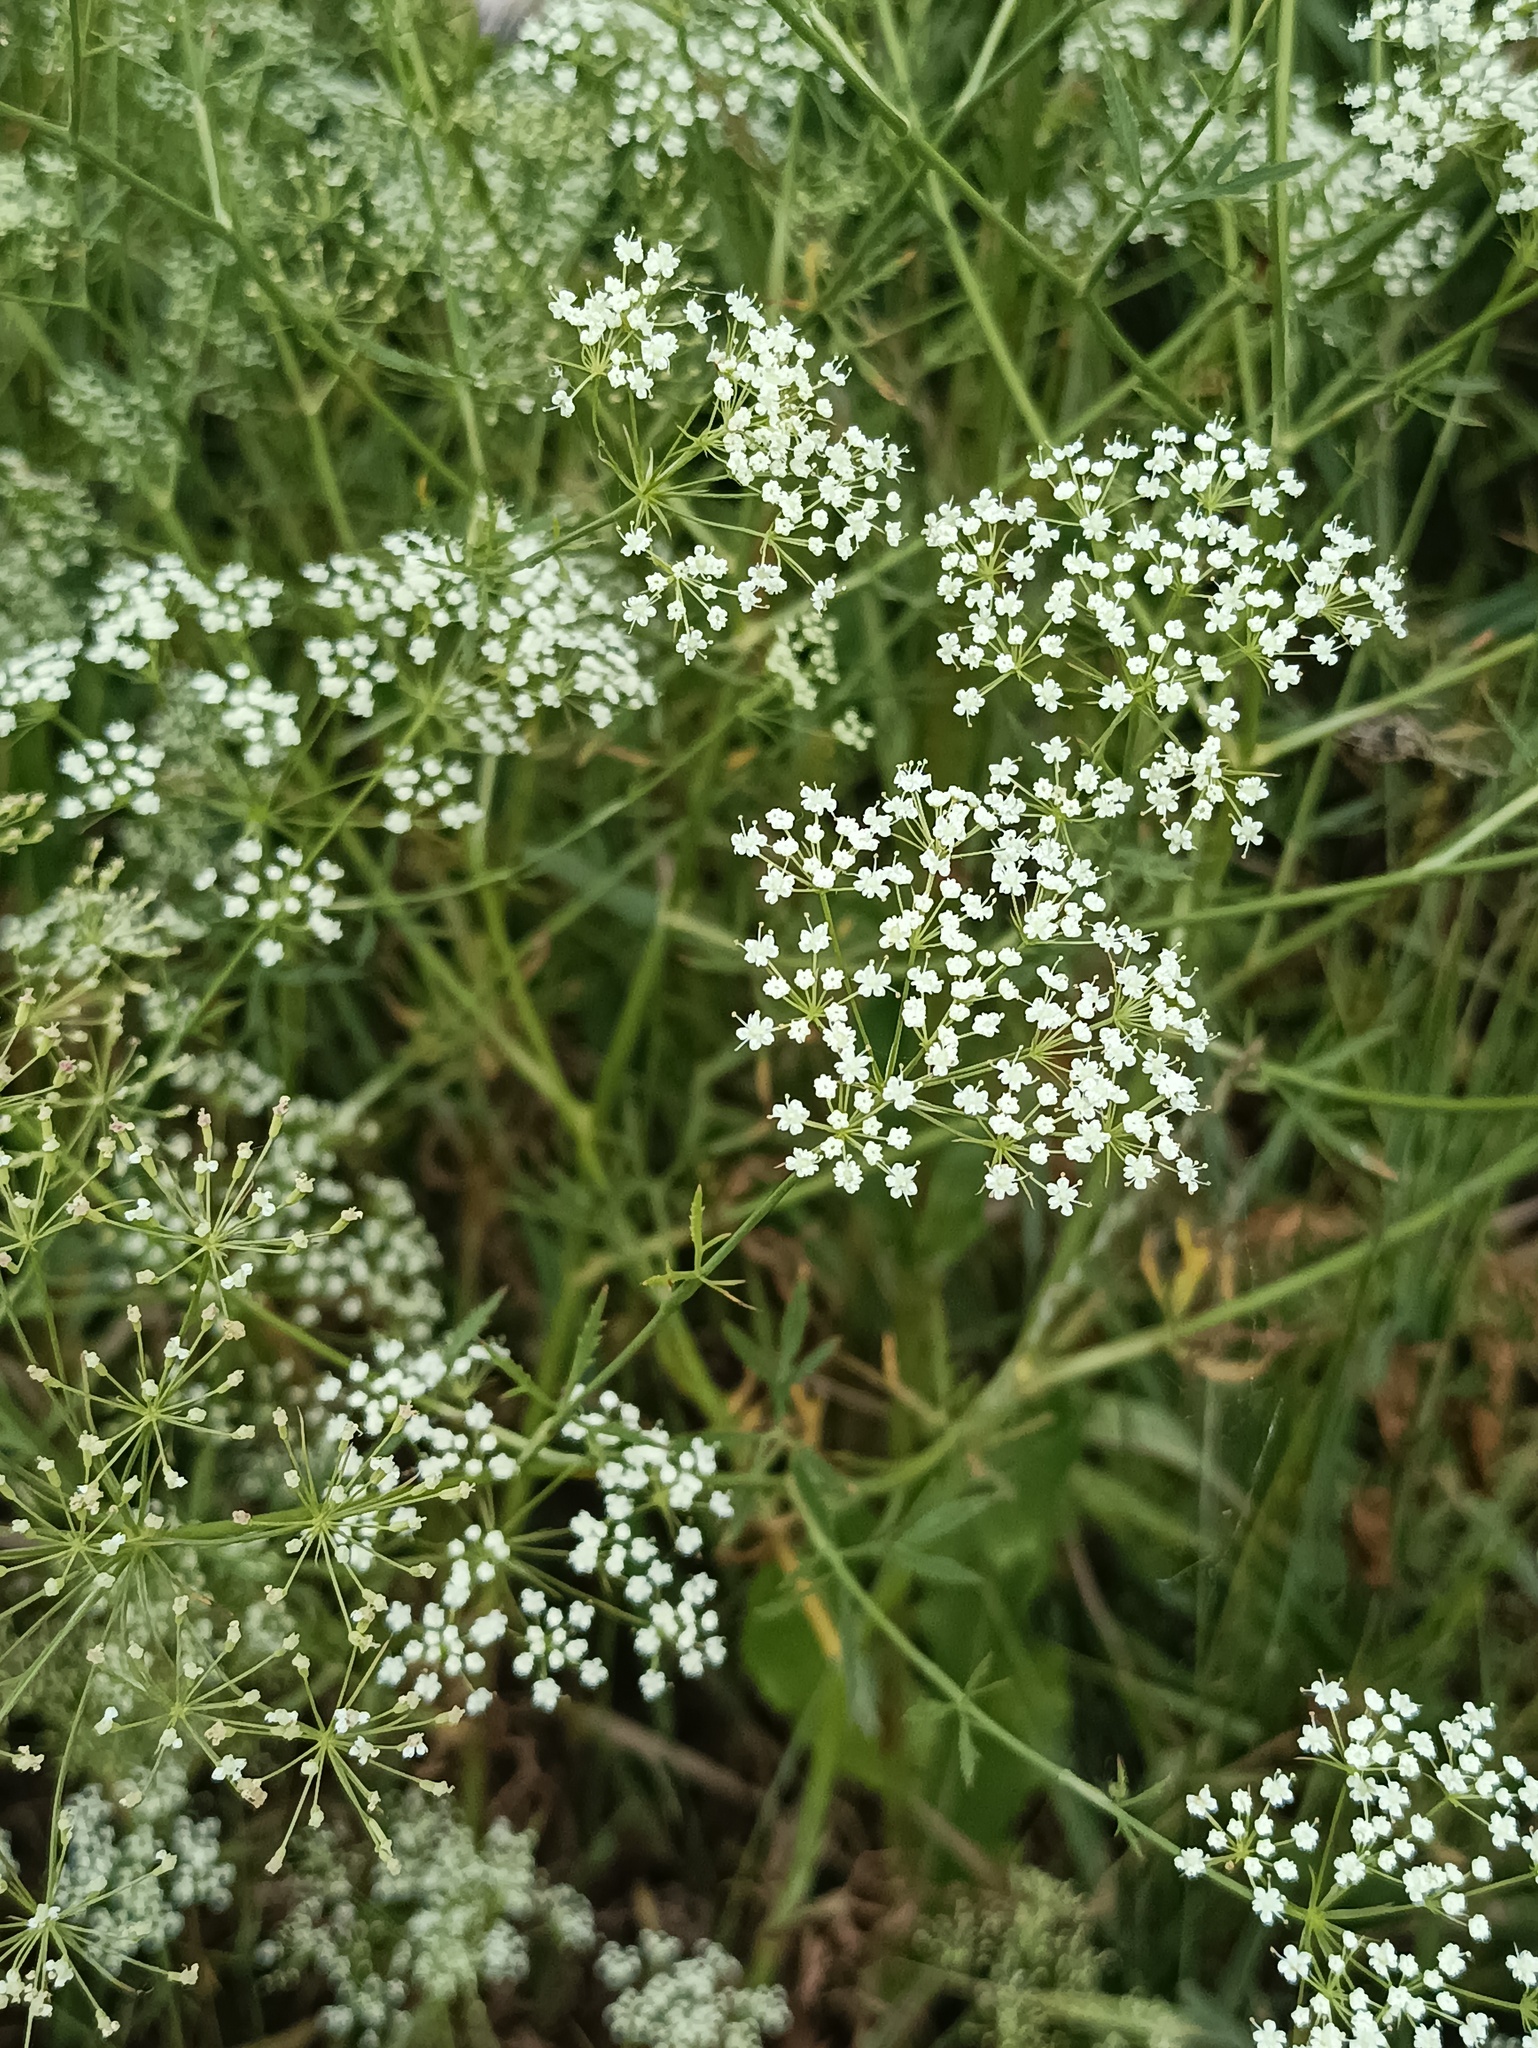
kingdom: Plantae
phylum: Tracheophyta
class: Magnoliopsida
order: Apiales
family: Apiaceae
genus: Falcaria
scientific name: Falcaria vulgaris
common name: Longleaf
